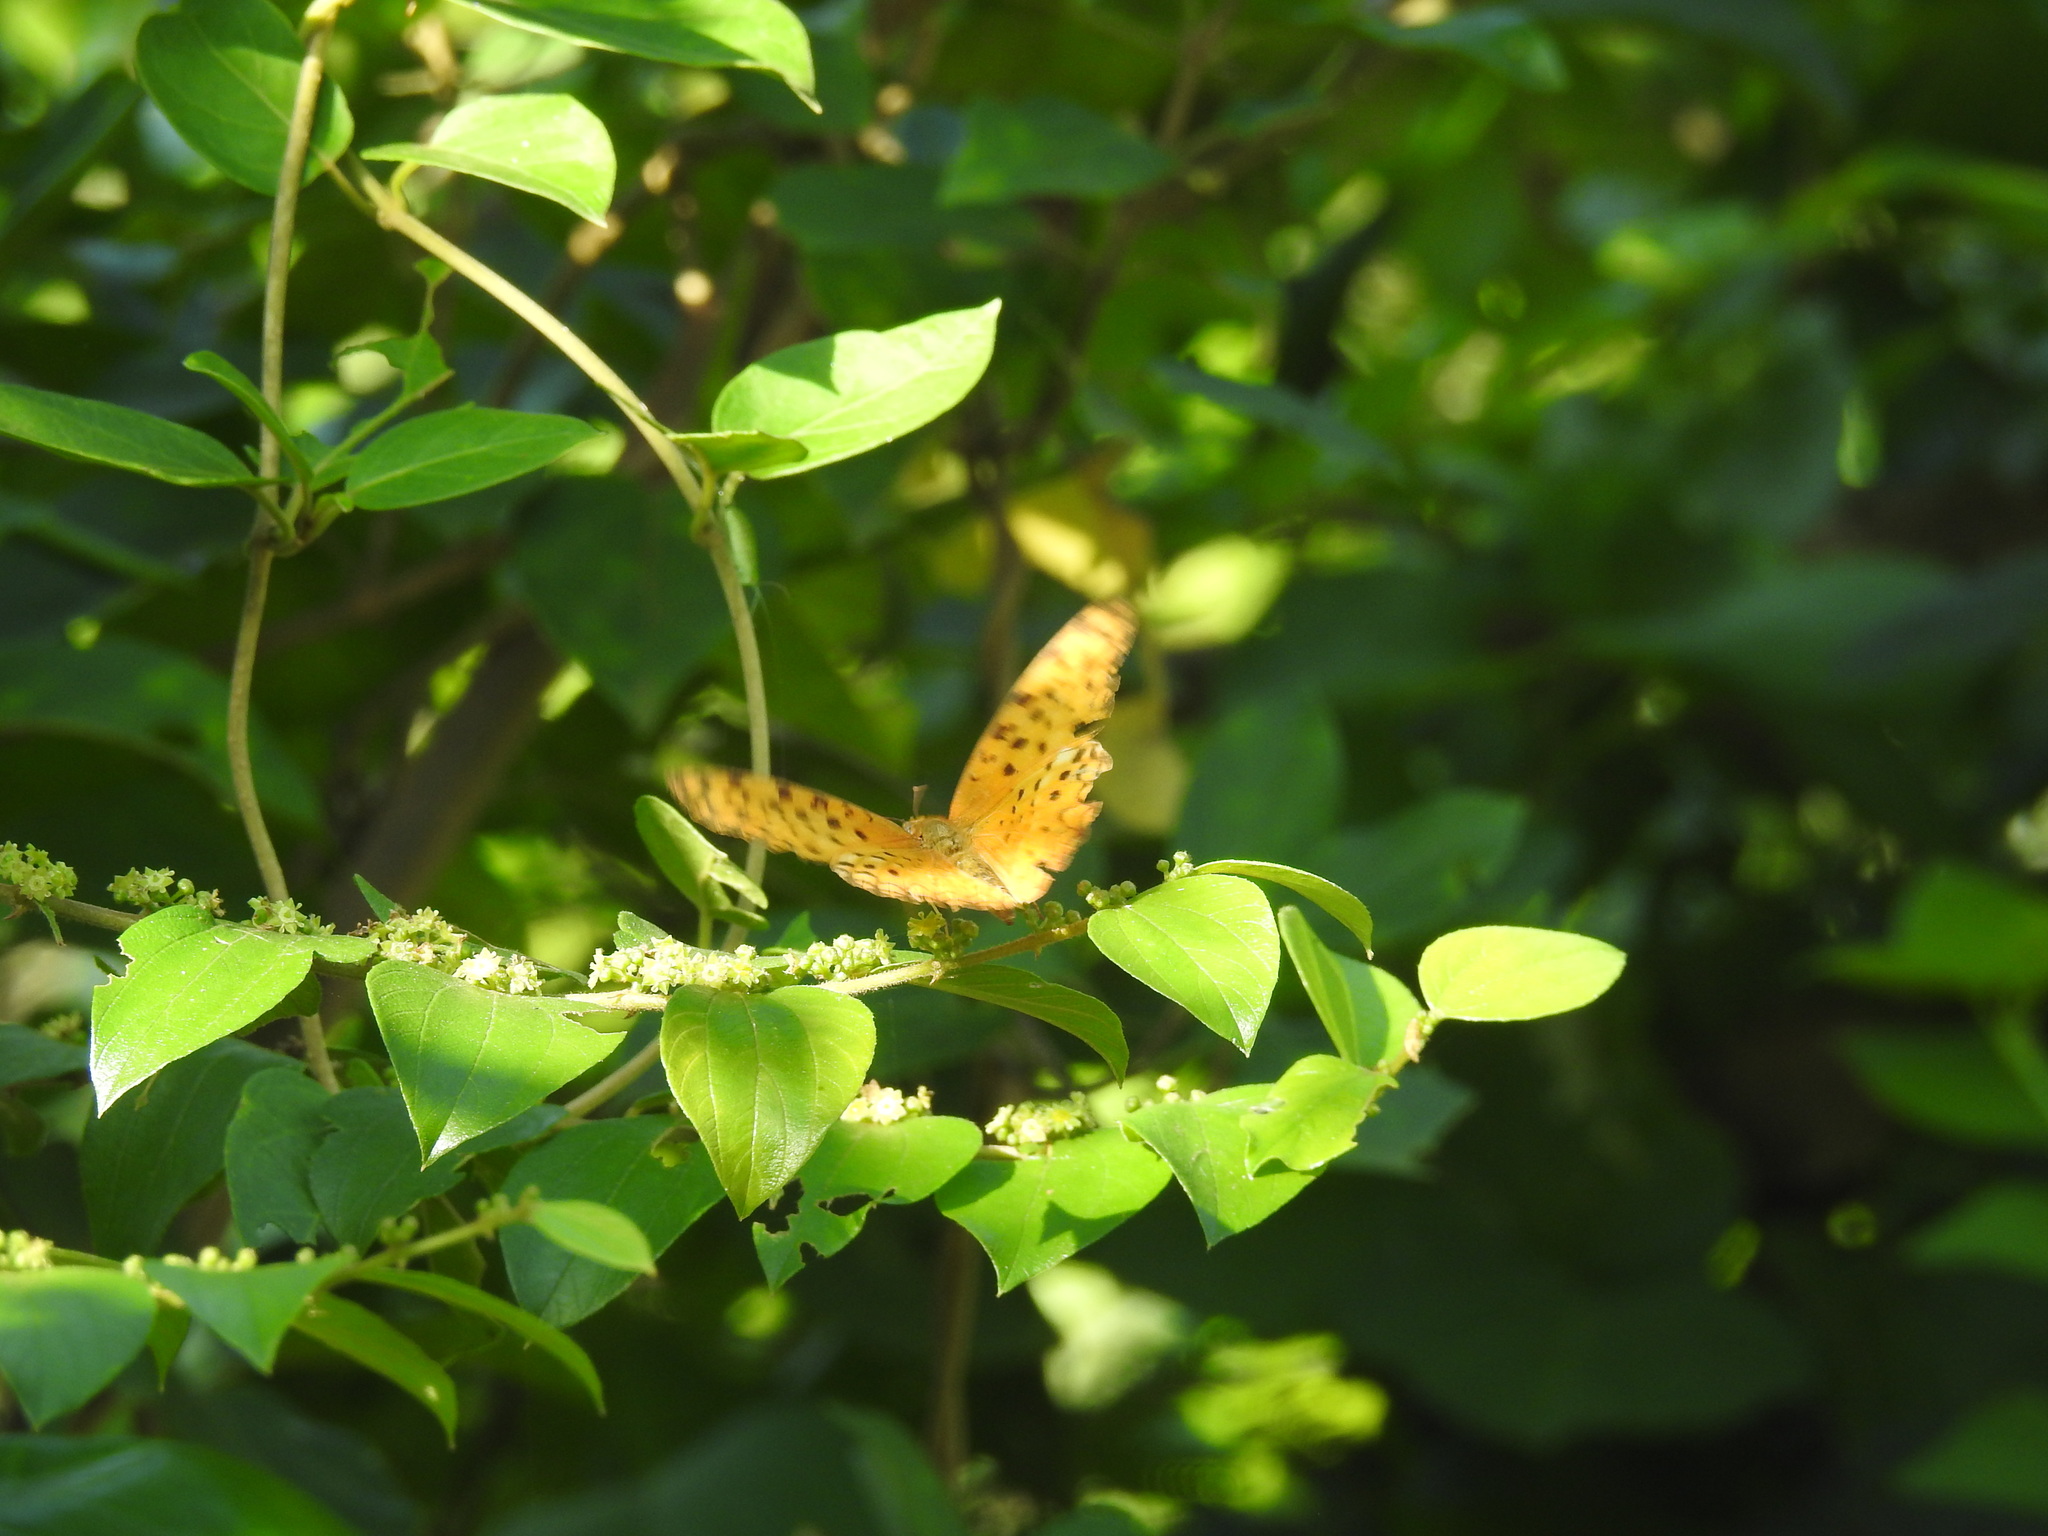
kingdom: Animalia
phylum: Arthropoda
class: Insecta
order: Lepidoptera
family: Nymphalidae
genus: Phalanta
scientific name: Phalanta phalantha
